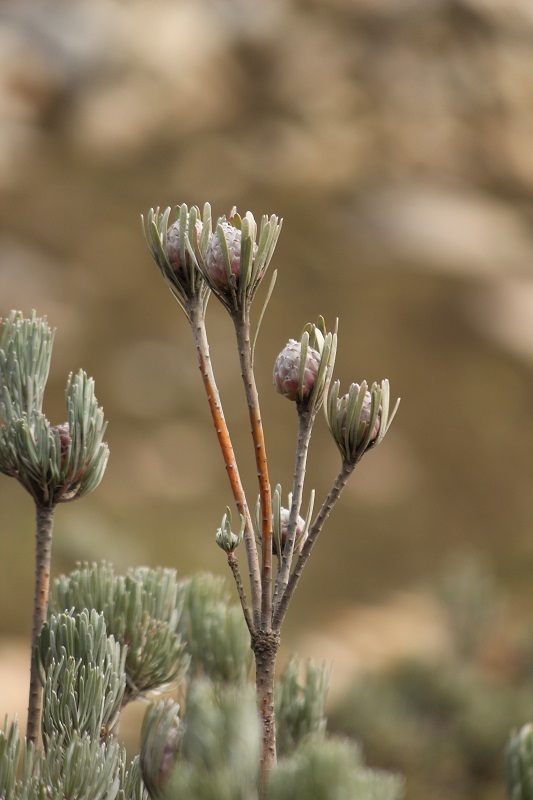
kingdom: Plantae
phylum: Tracheophyta
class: Magnoliopsida
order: Proteales
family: Proteaceae
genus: Leucadendron
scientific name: Leucadendron album
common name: Linear-leaf conebush
